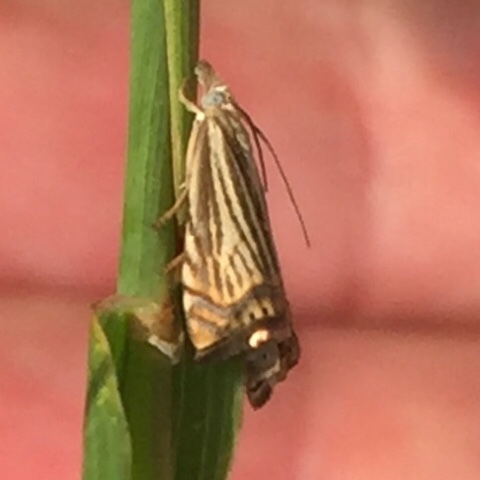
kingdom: Animalia
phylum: Arthropoda
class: Insecta
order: Lepidoptera
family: Crambidae
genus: Chrysoteuchia
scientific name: Chrysoteuchia topiarius
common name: Topiary grass-veneer
